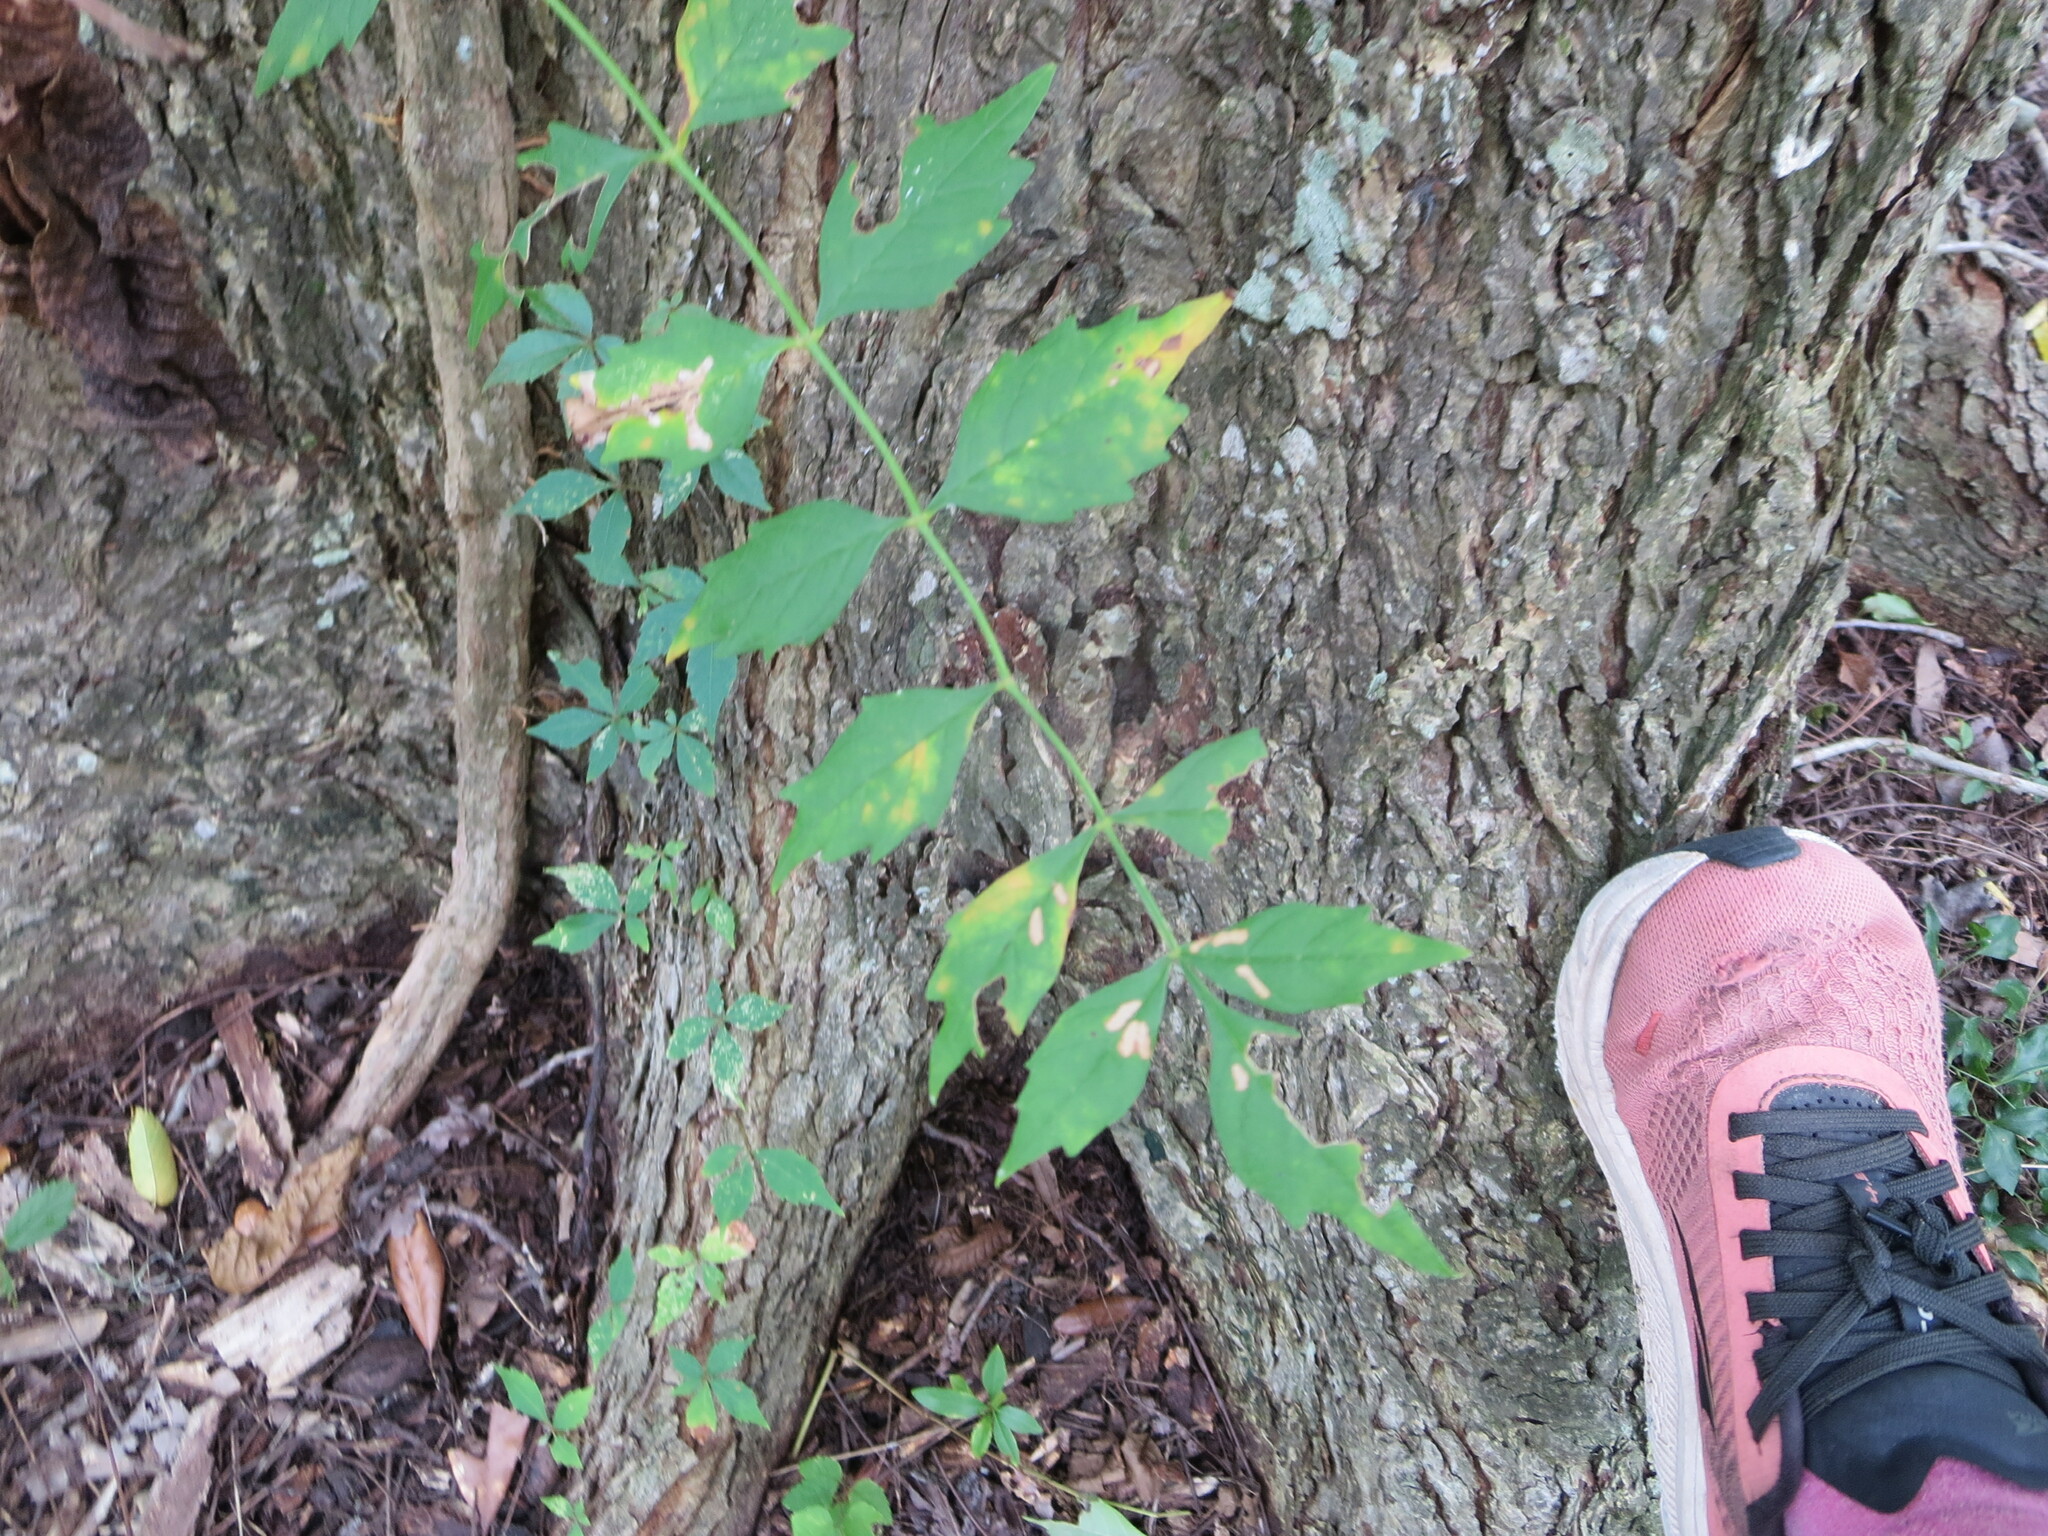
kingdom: Plantae
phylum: Tracheophyta
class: Magnoliopsida
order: Lamiales
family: Bignoniaceae
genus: Campsis
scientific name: Campsis radicans
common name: Trumpet-creeper
